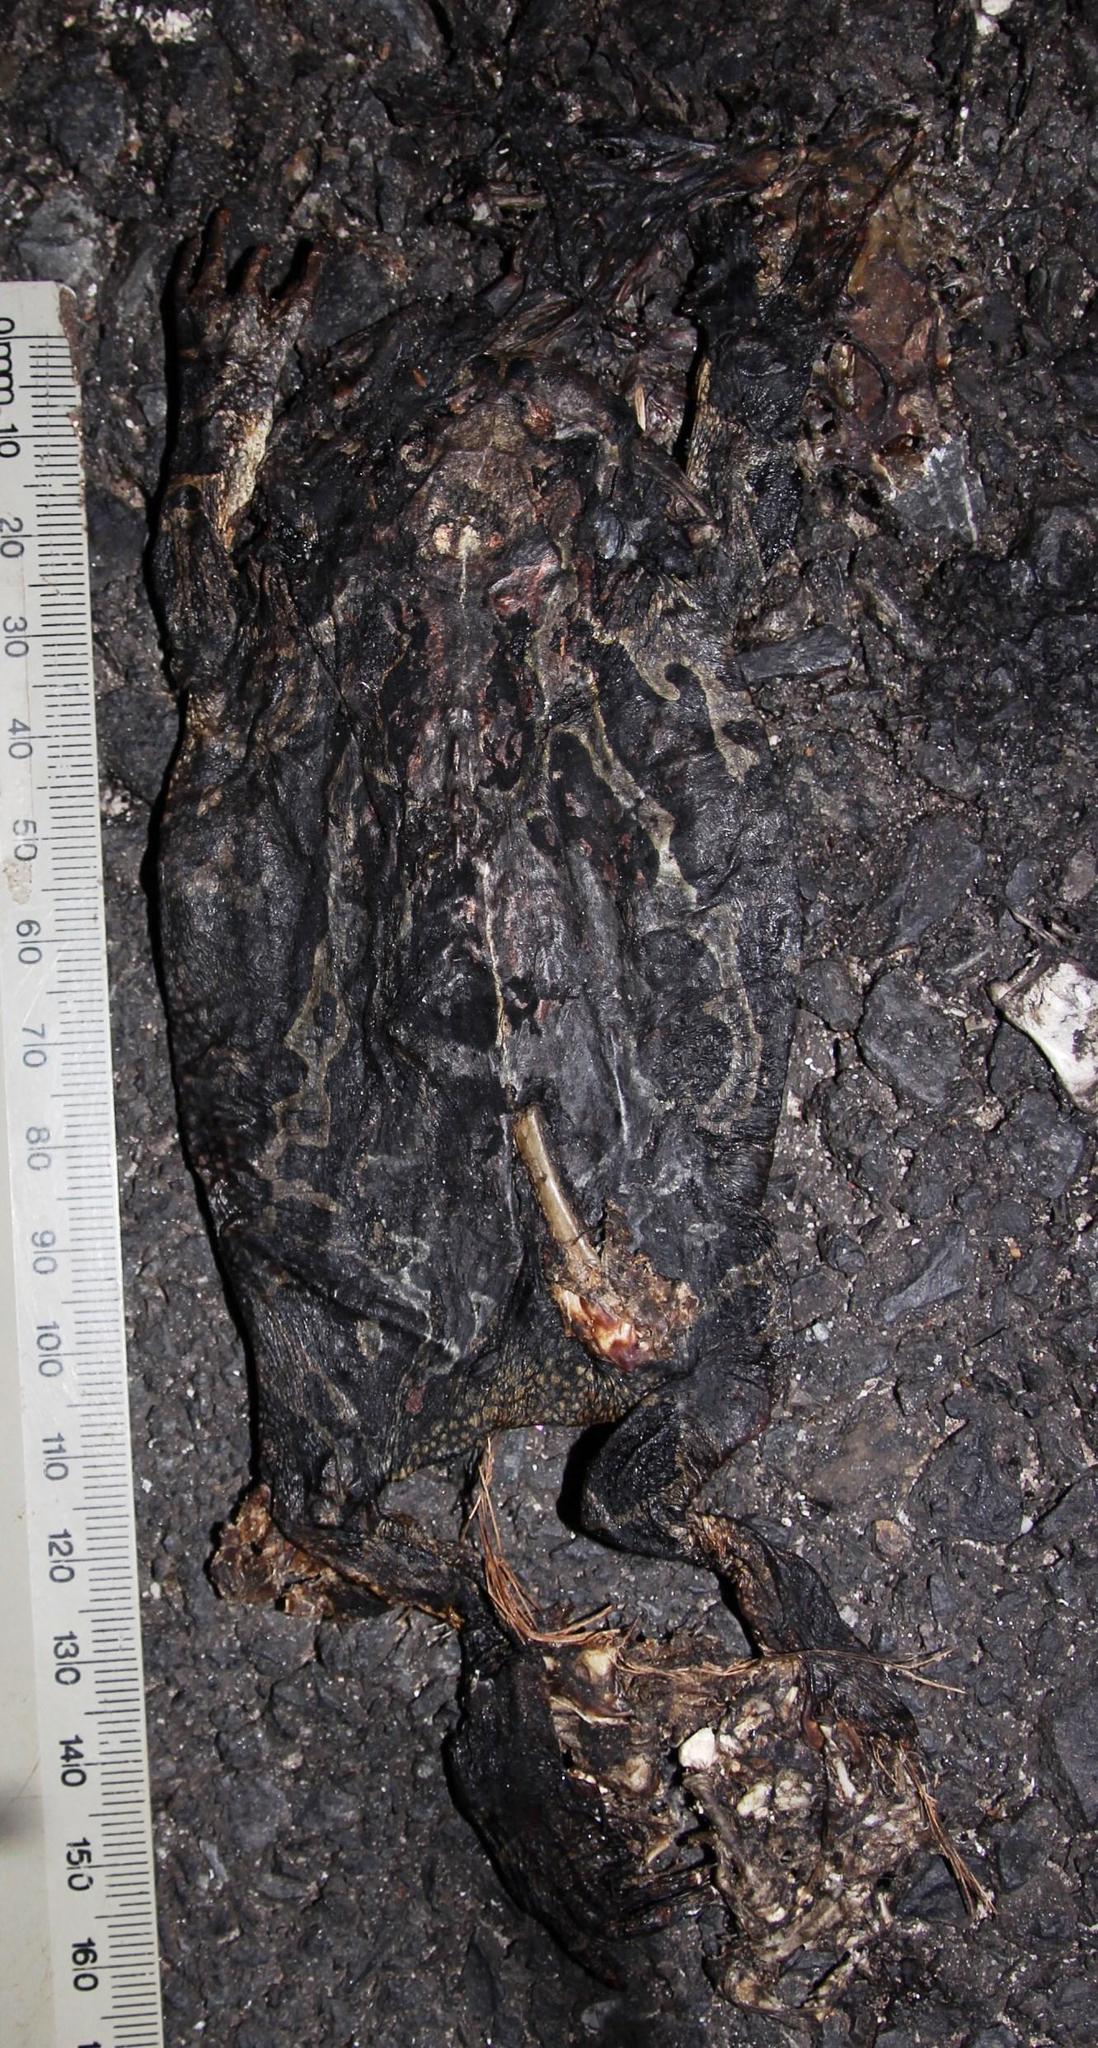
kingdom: Animalia
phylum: Chordata
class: Amphibia
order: Anura
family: Bufonidae
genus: Sclerophrys
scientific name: Sclerophrys pantherina
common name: Panther toad
